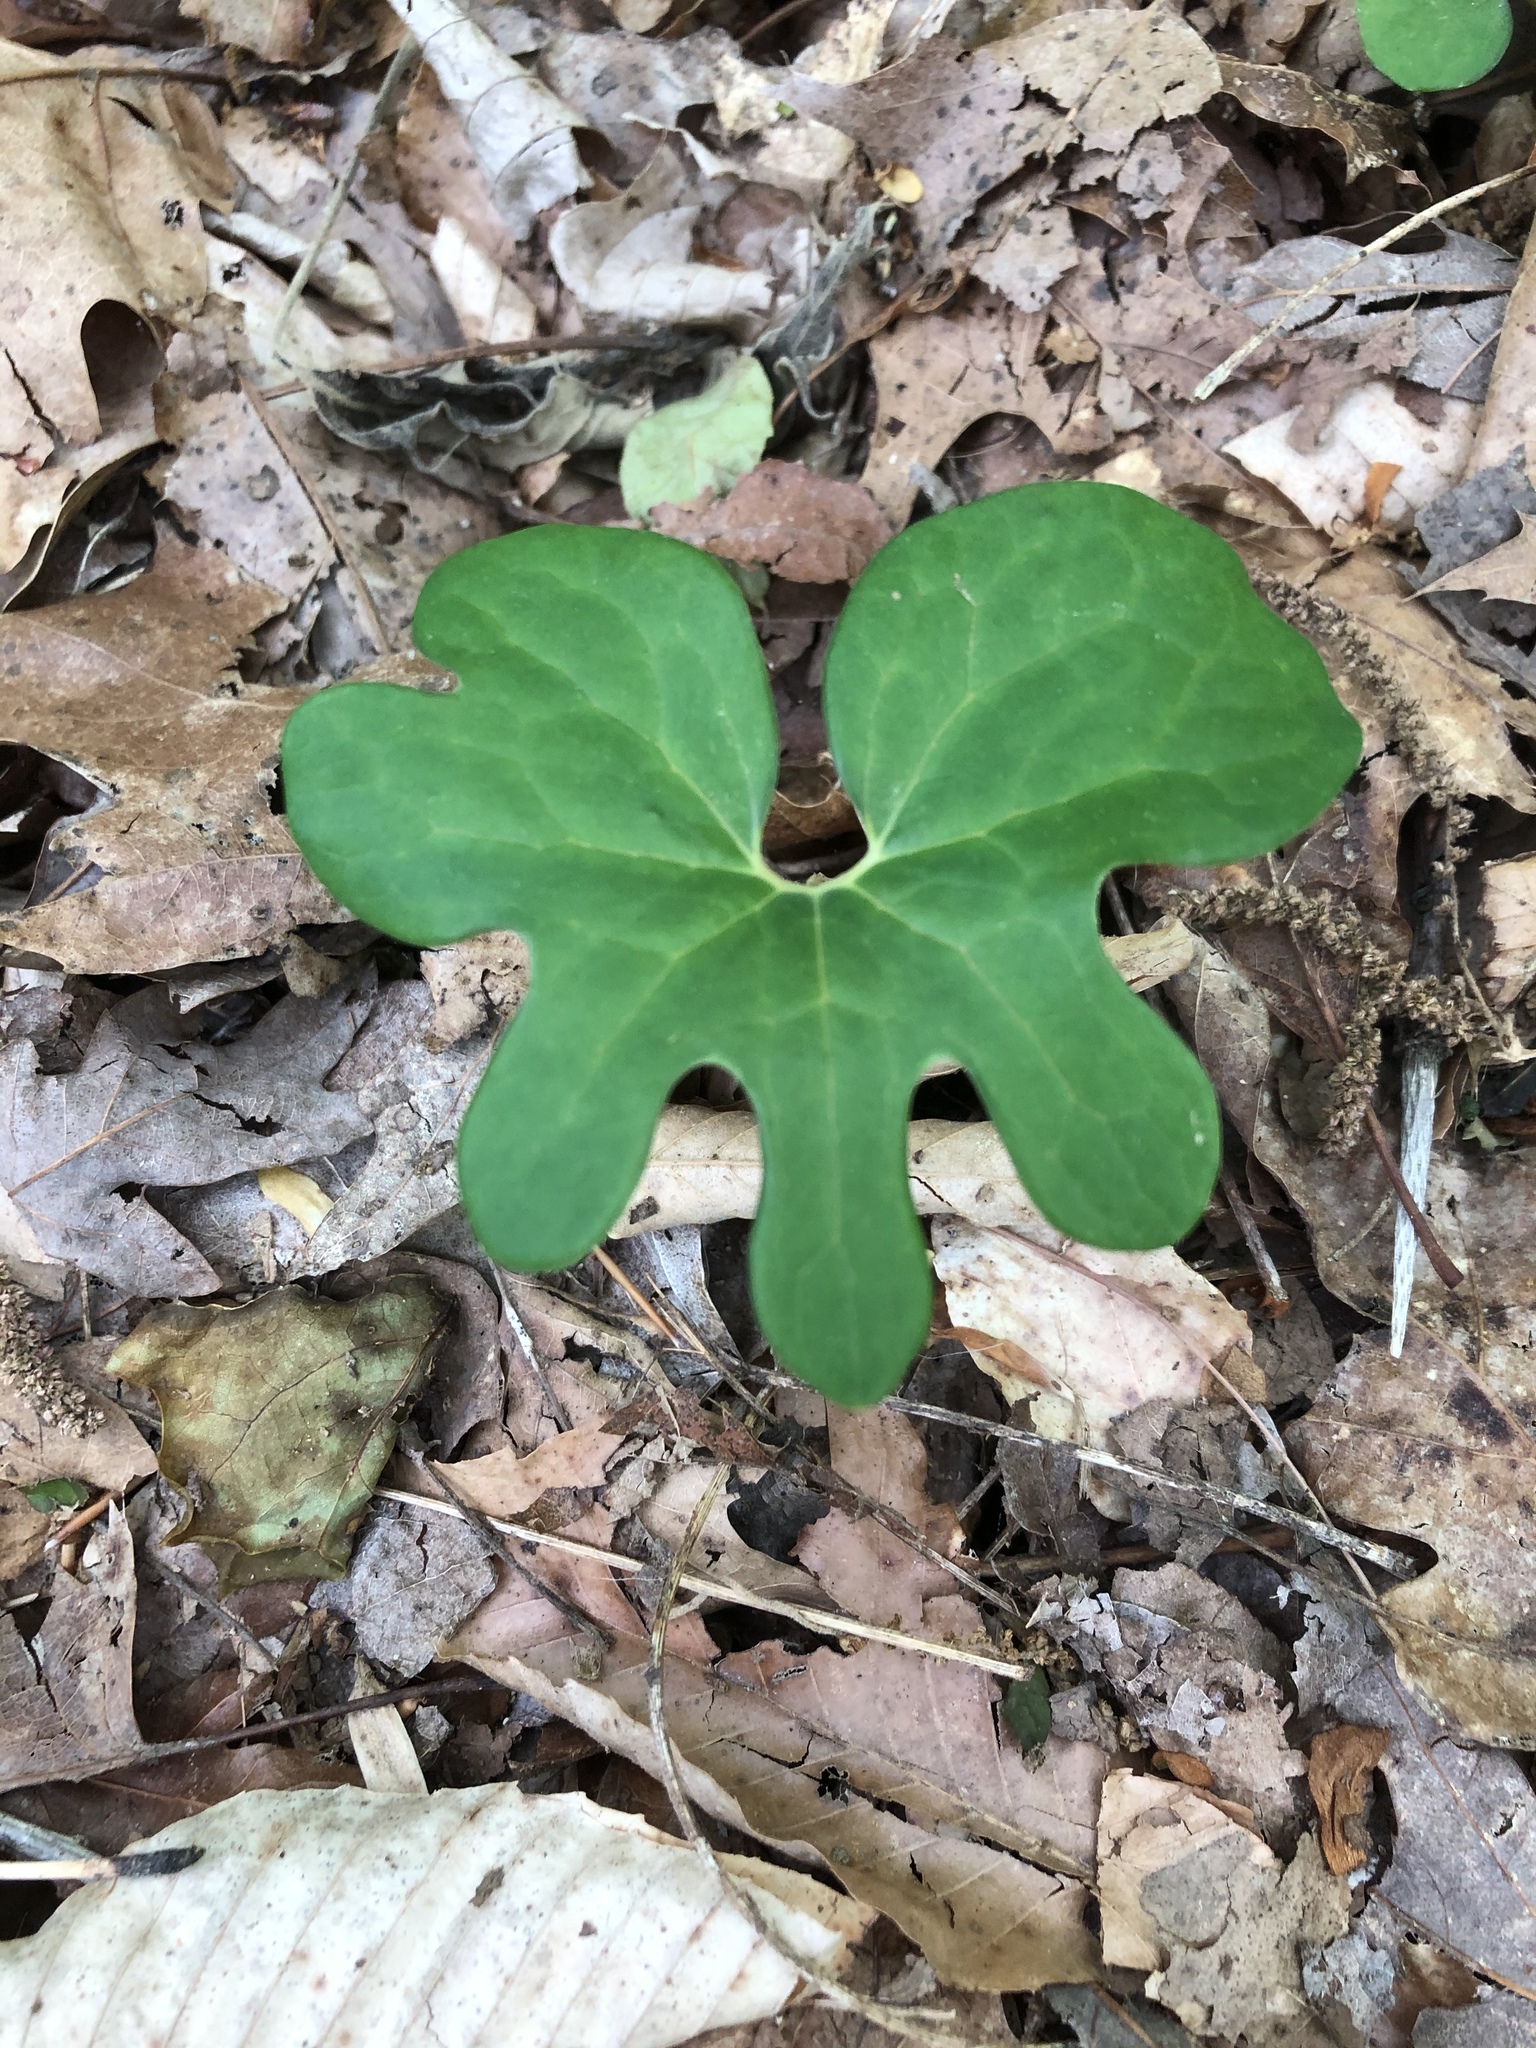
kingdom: Plantae
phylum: Tracheophyta
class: Magnoliopsida
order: Ranunculales
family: Papaveraceae
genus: Sanguinaria
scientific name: Sanguinaria canadensis
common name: Bloodroot
